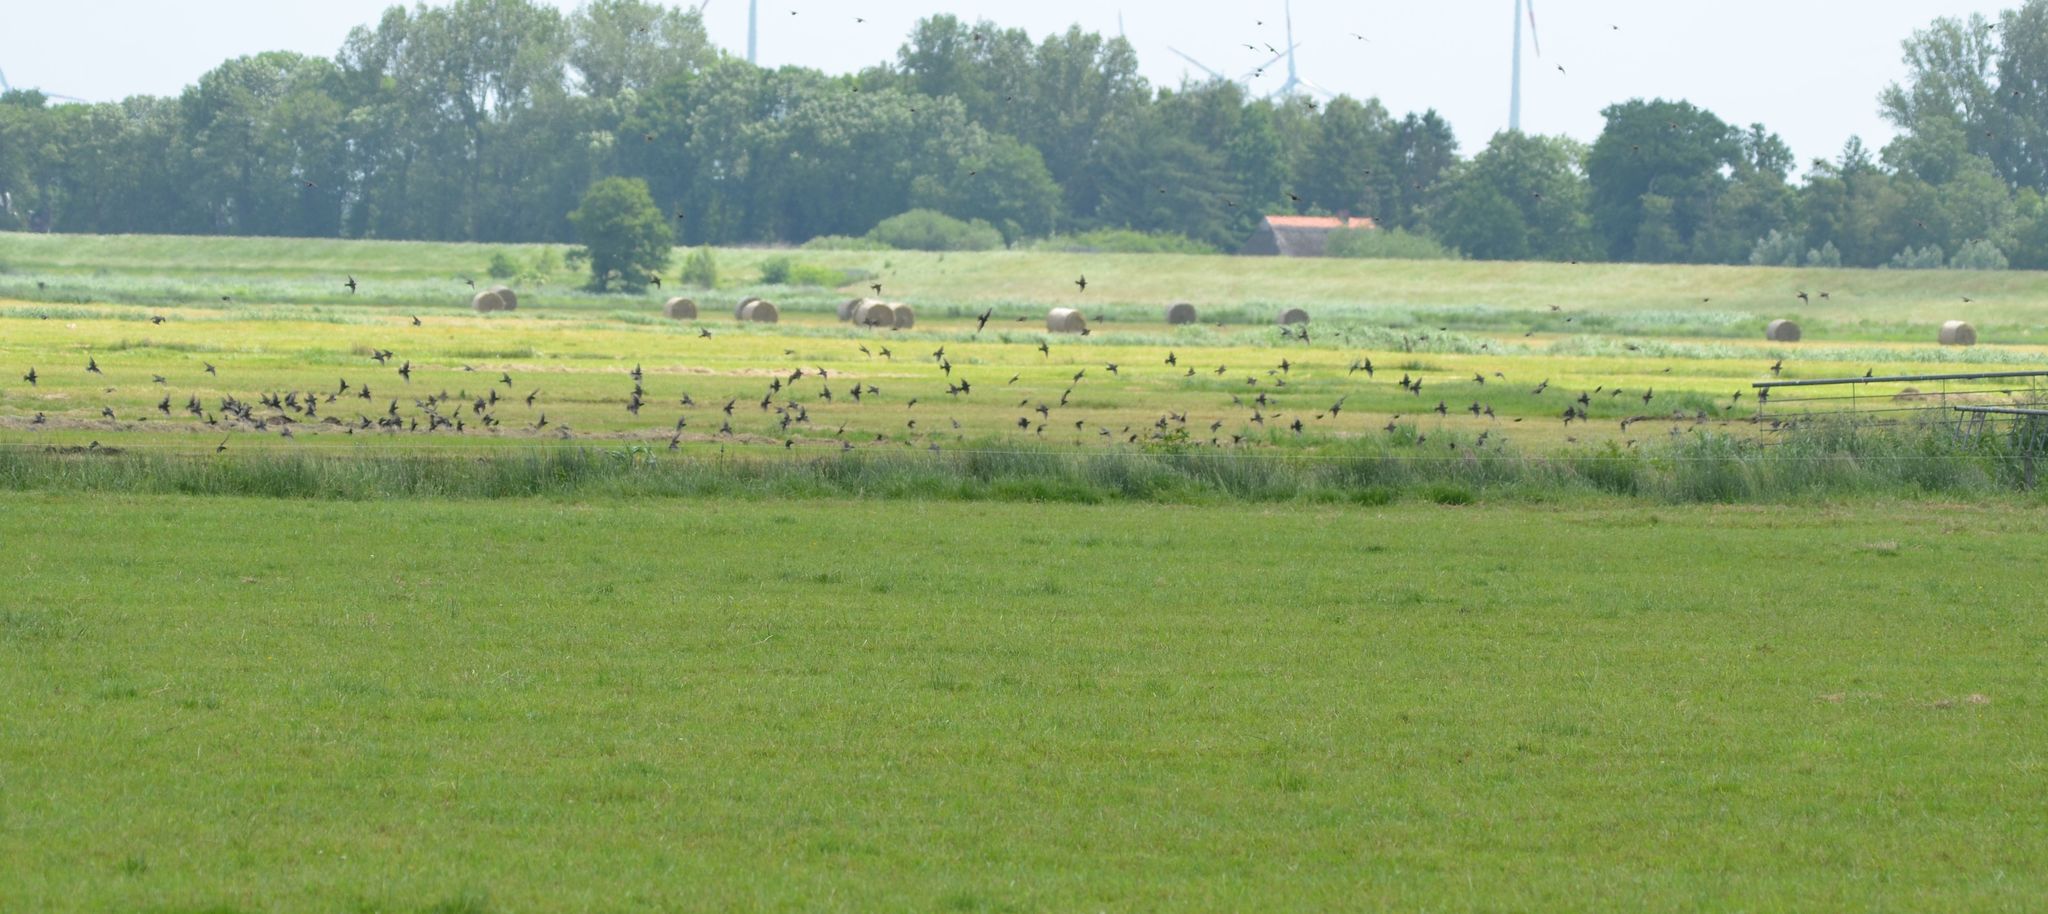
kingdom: Animalia
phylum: Chordata
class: Aves
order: Passeriformes
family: Sturnidae
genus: Sturnus
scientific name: Sturnus vulgaris
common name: Common starling
